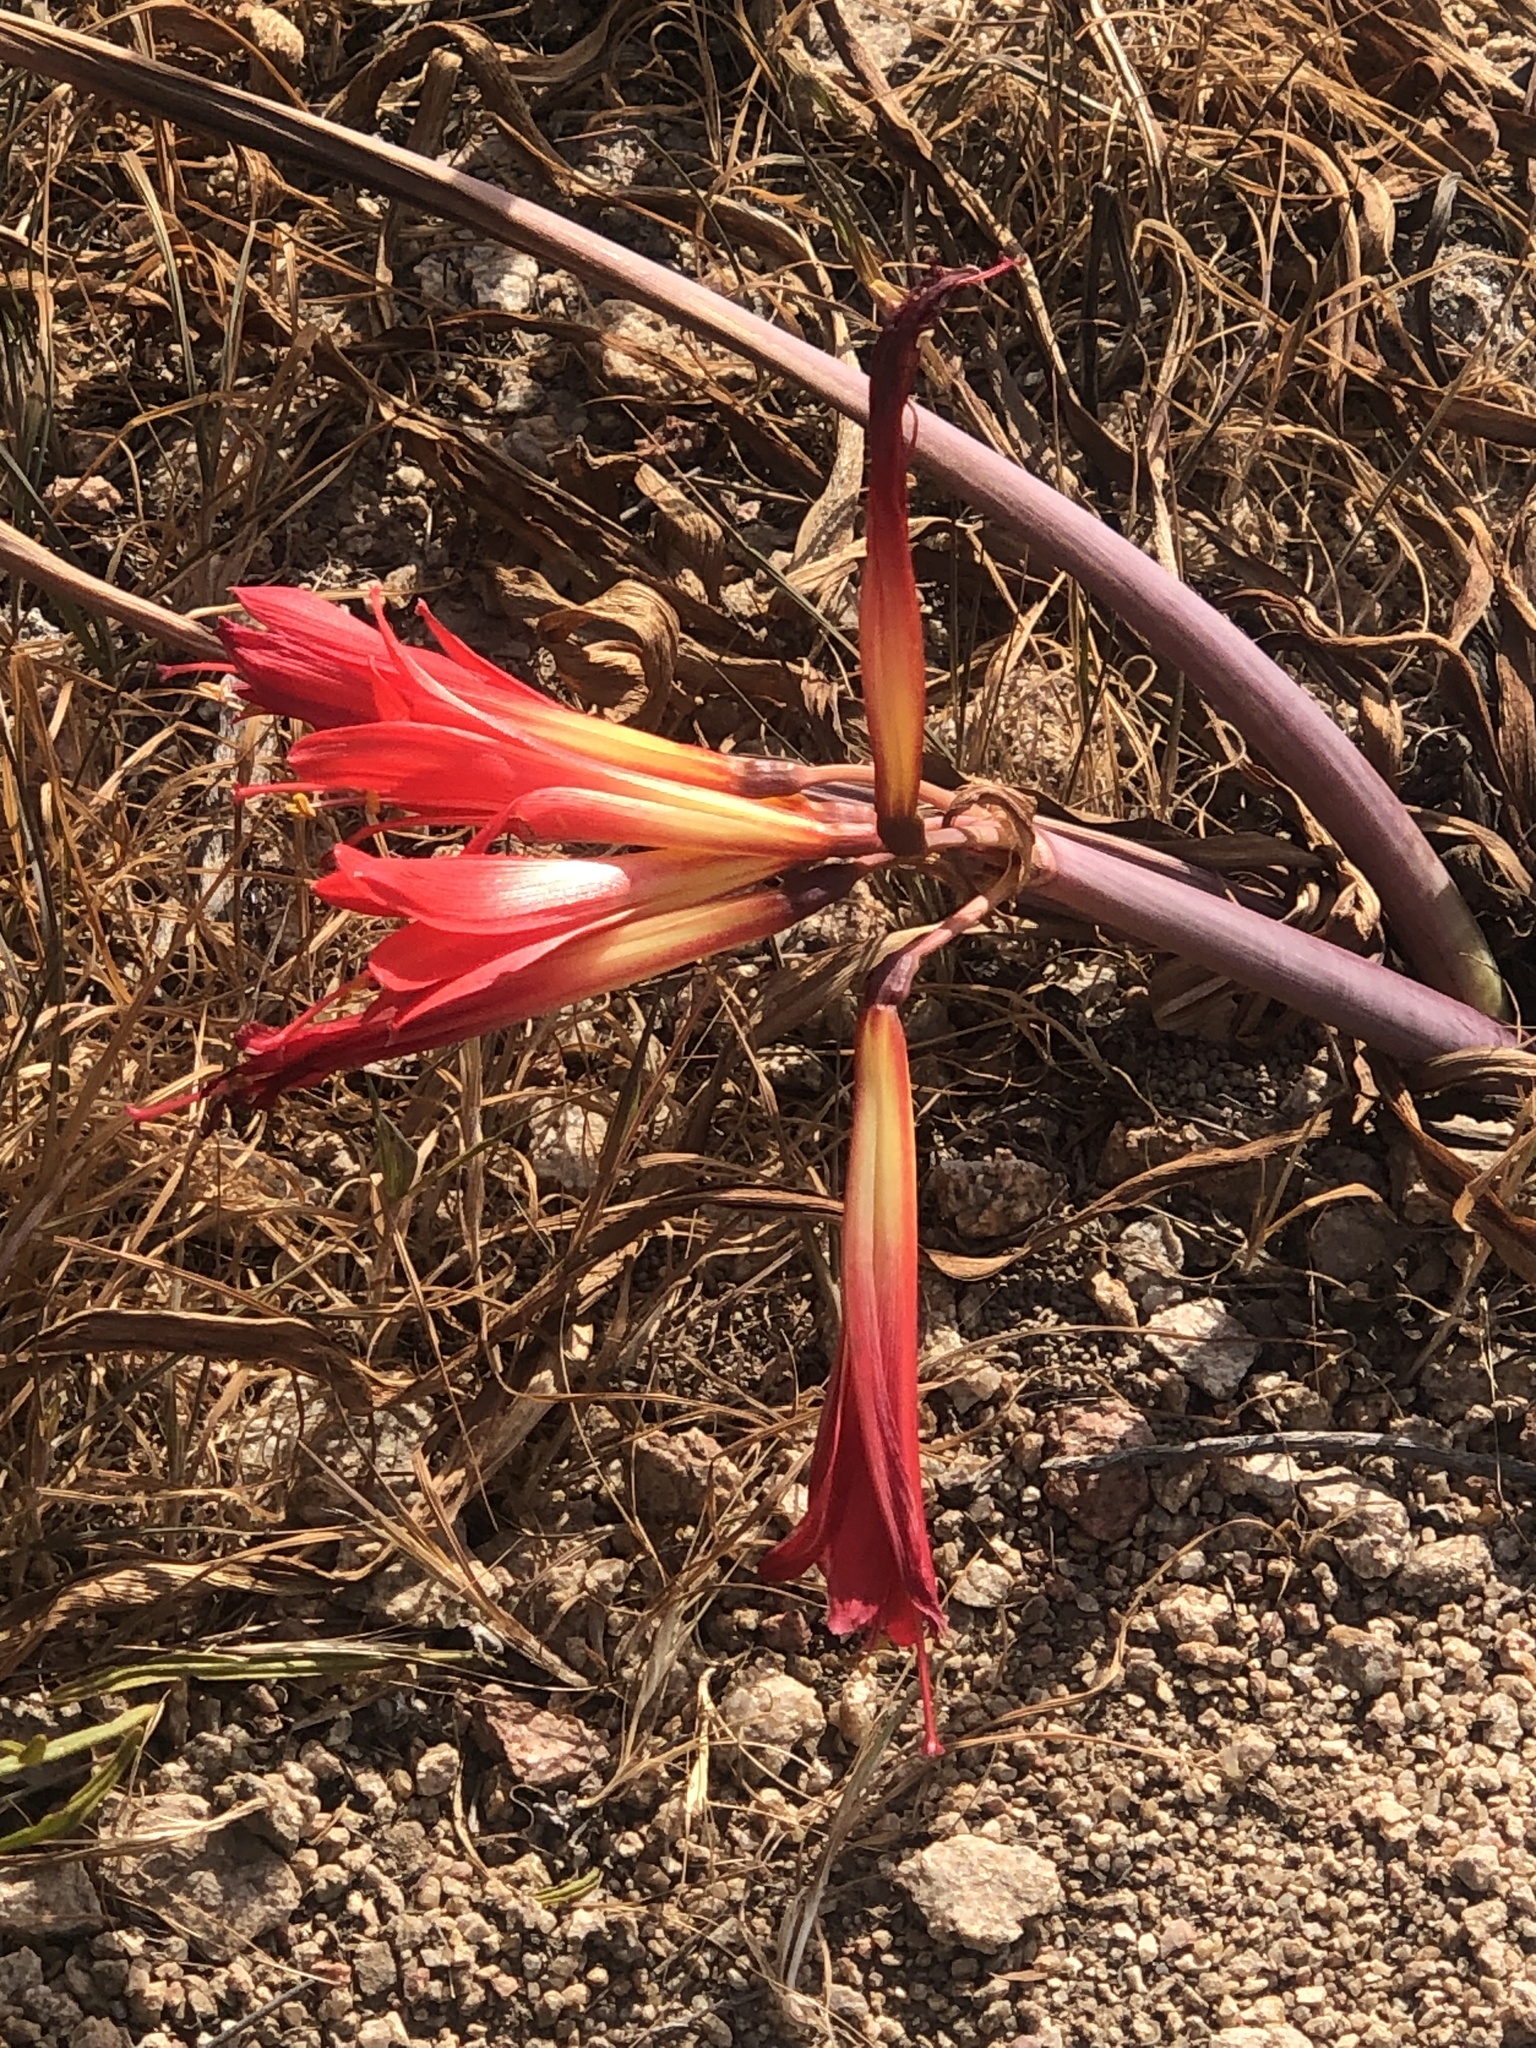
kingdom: Plantae
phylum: Tracheophyta
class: Liliopsida
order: Asparagales
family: Amaryllidaceae
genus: Phycella
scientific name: Phycella cyrtanthoides
